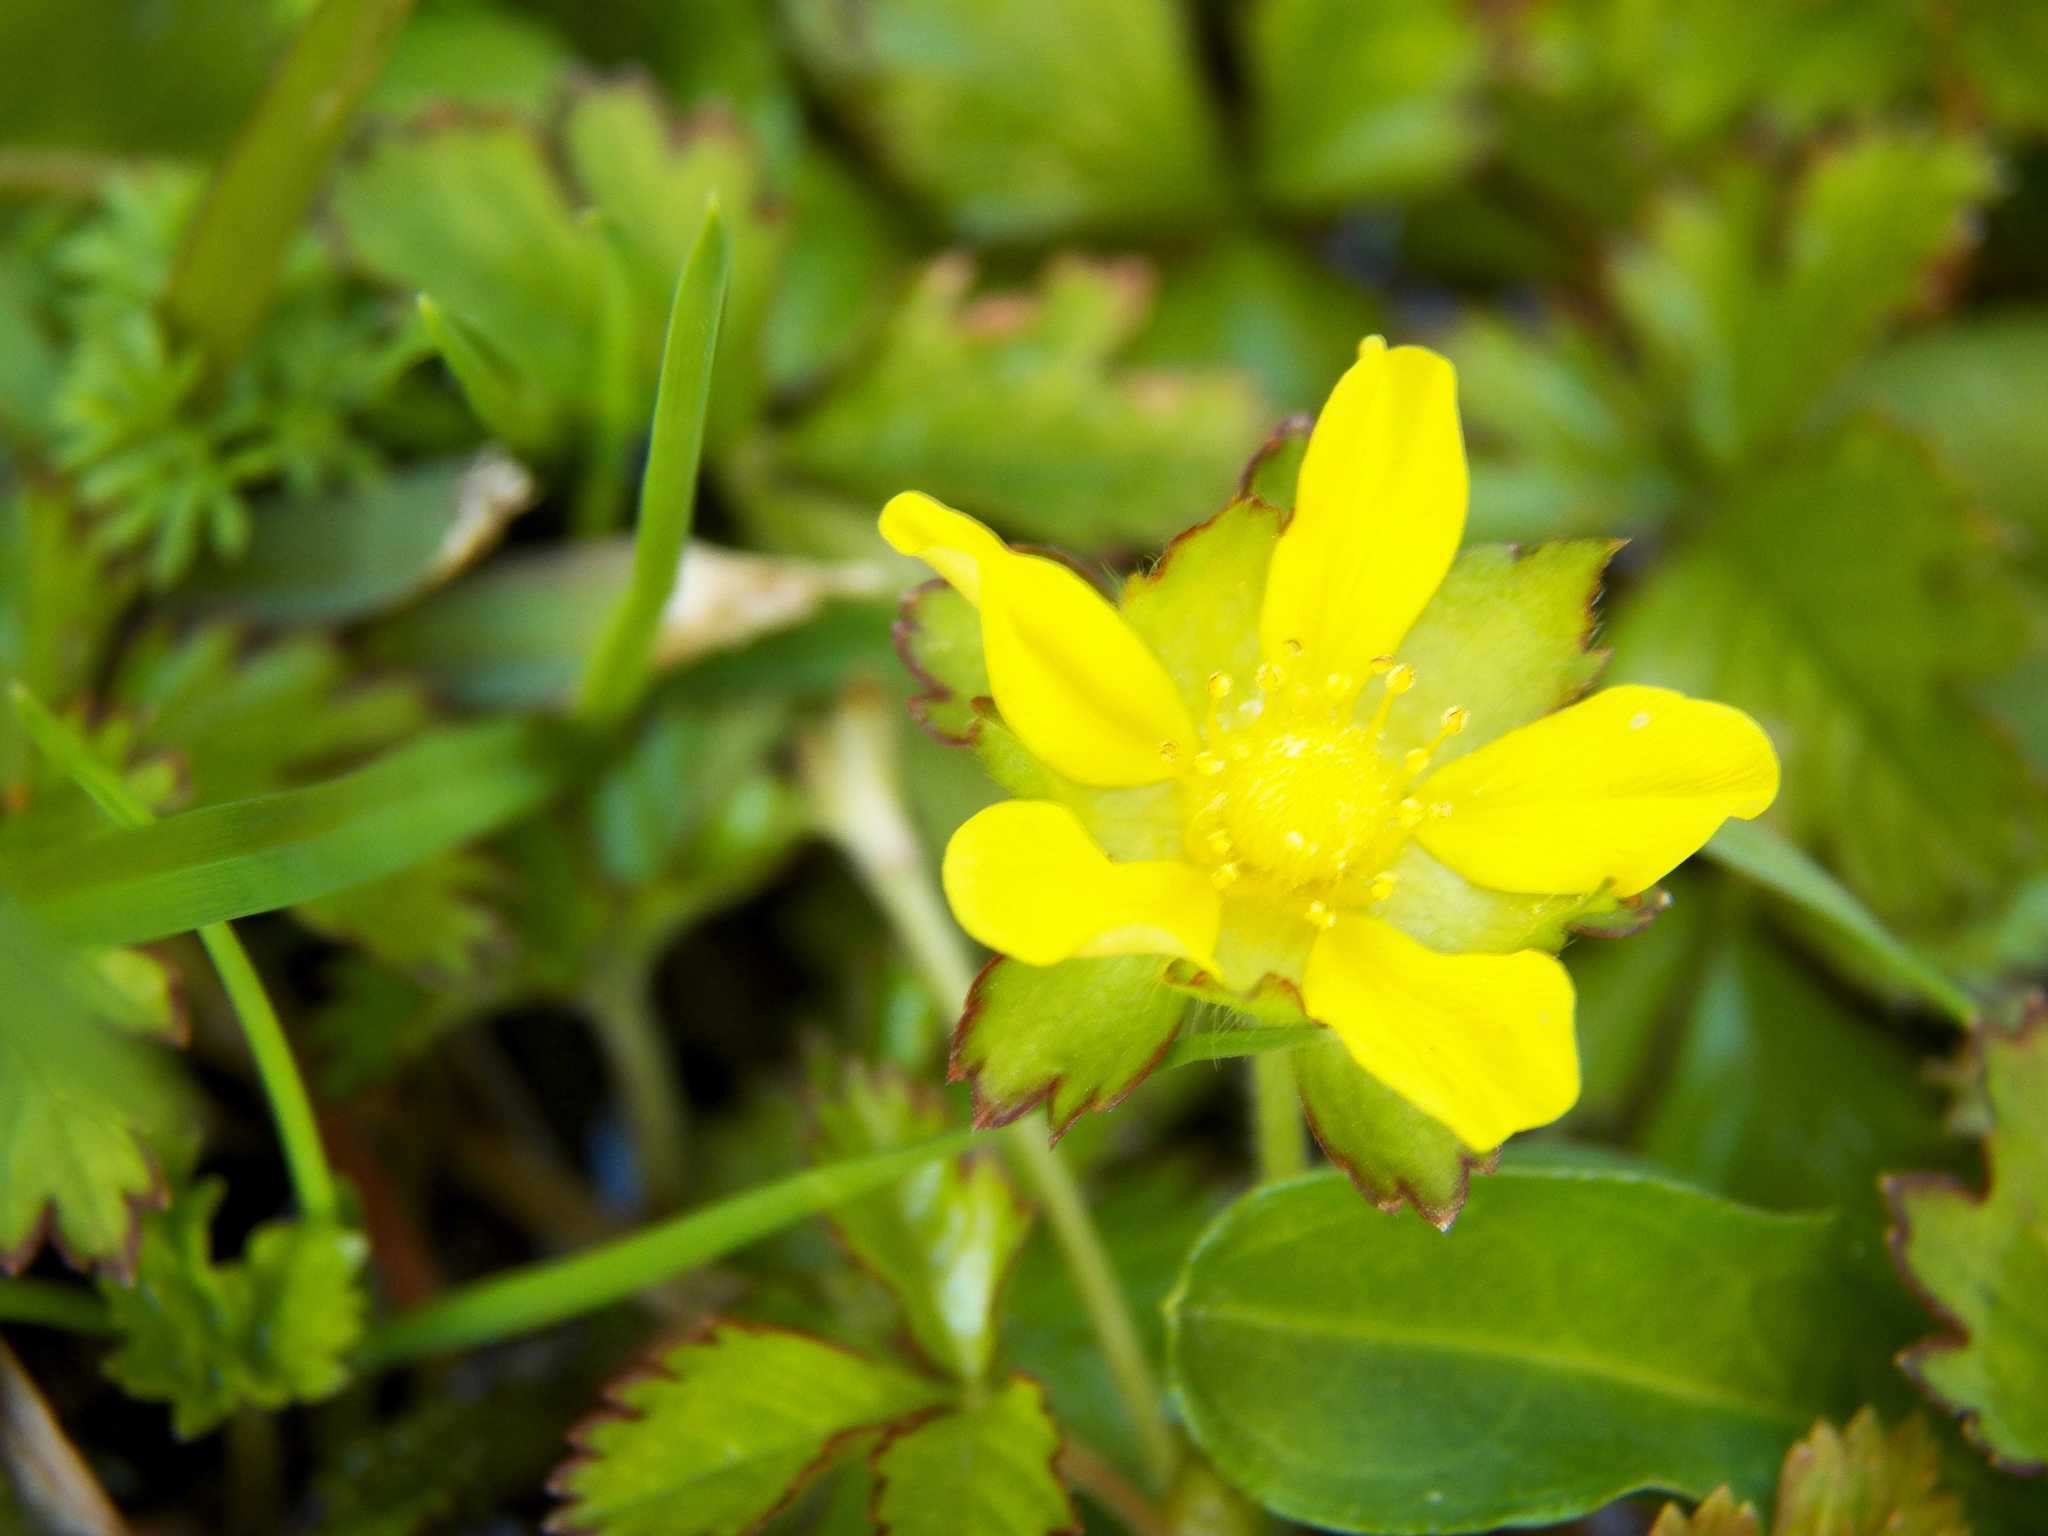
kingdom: Plantae
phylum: Tracheophyta
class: Magnoliopsida
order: Rosales
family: Rosaceae
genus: Potentilla
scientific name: Potentilla indica
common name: Yellow-flowered strawberry
